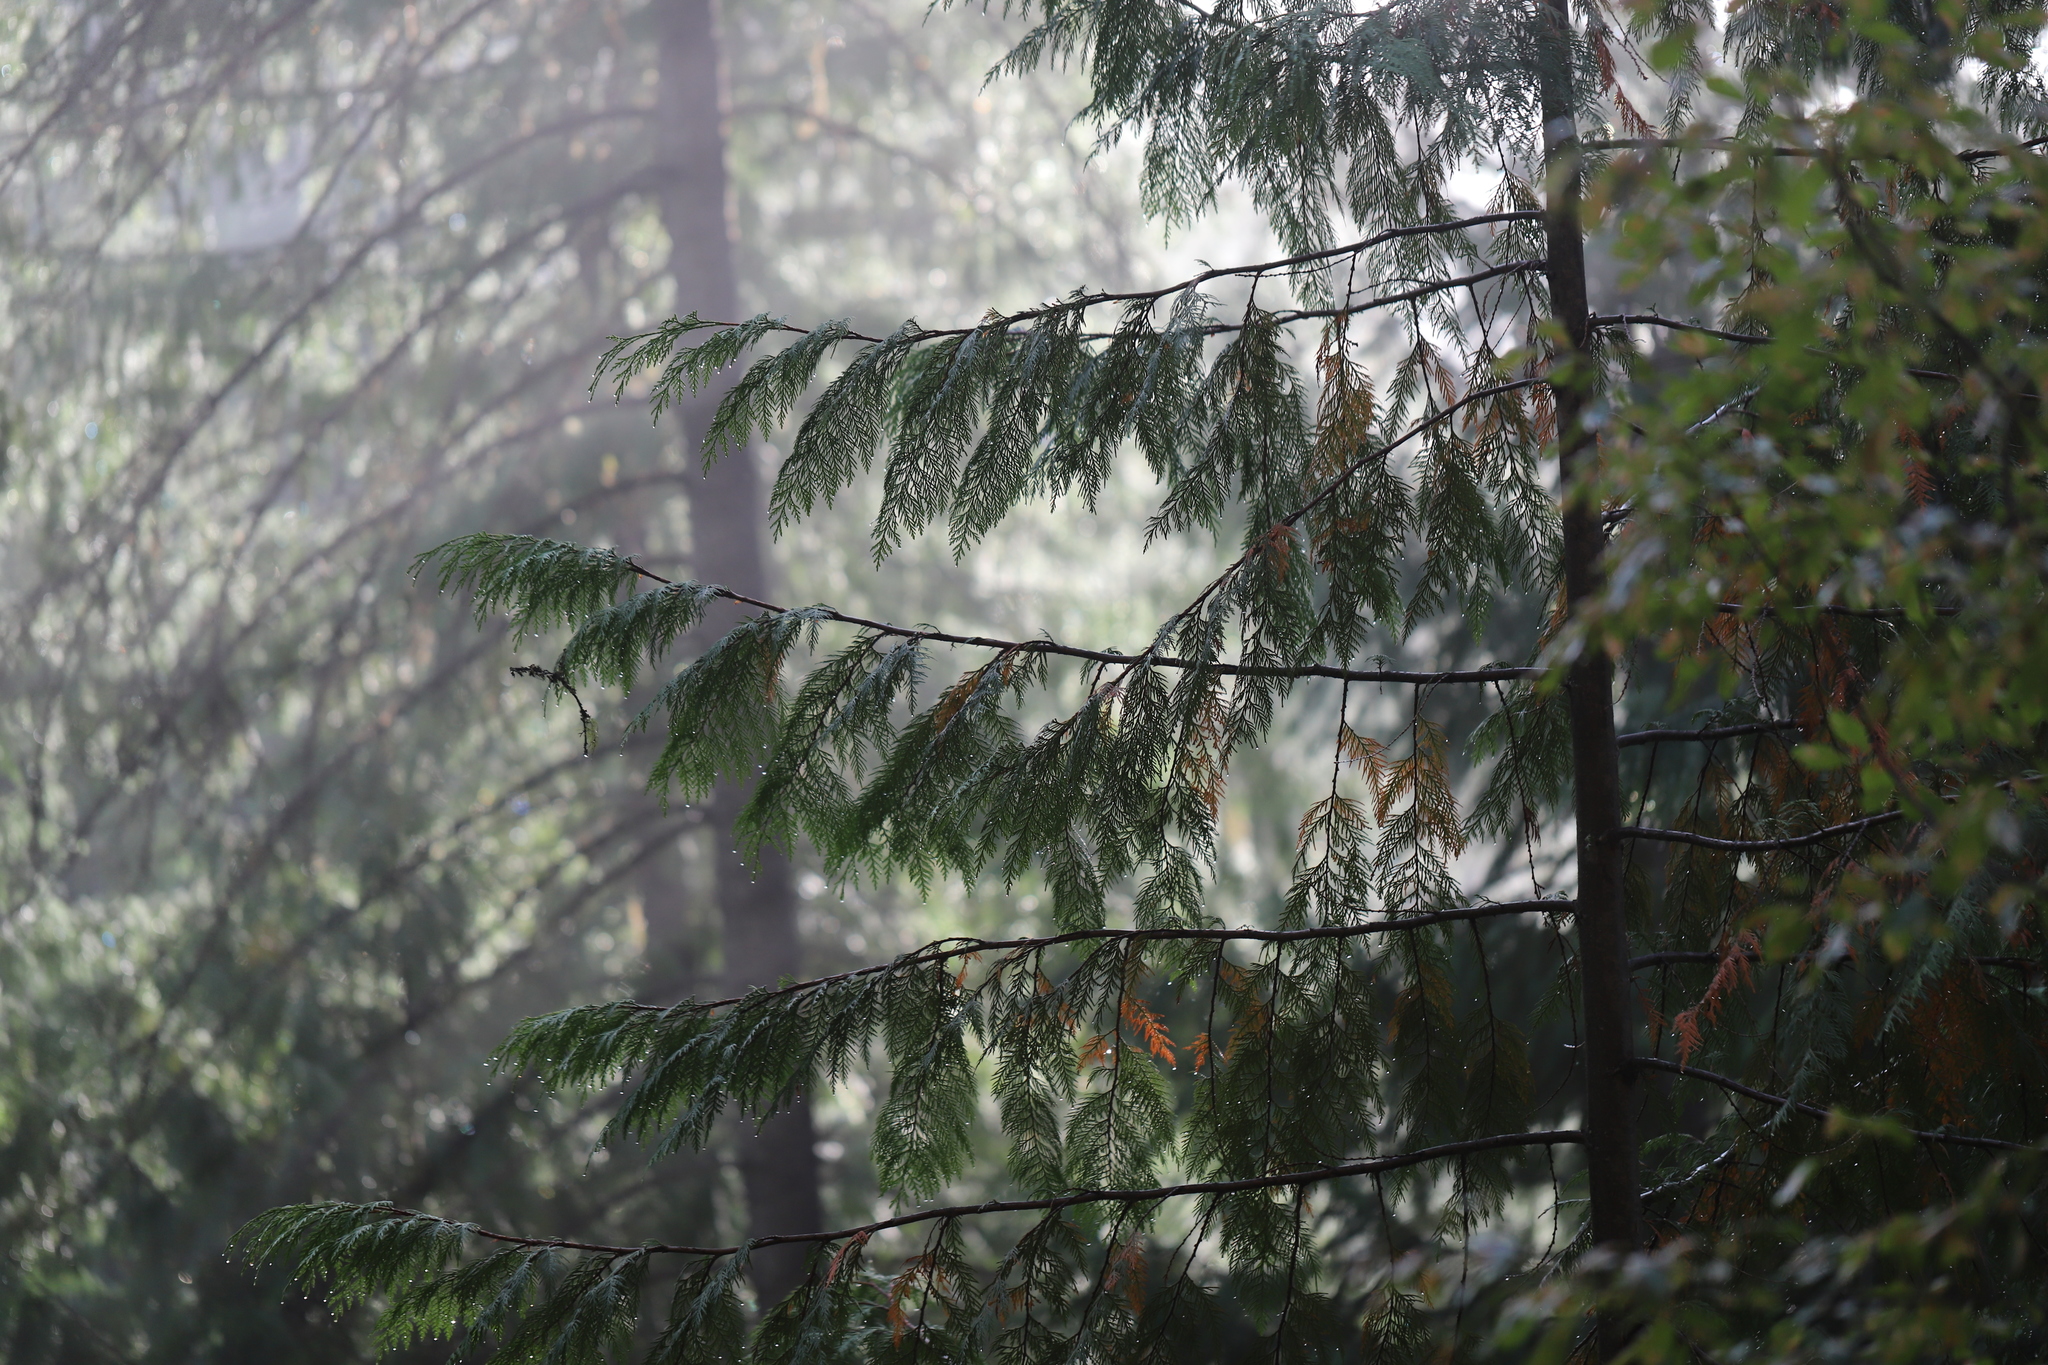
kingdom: Plantae
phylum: Tracheophyta
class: Pinopsida
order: Pinales
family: Cupressaceae
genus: Thuja
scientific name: Thuja plicata
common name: Western red-cedar
